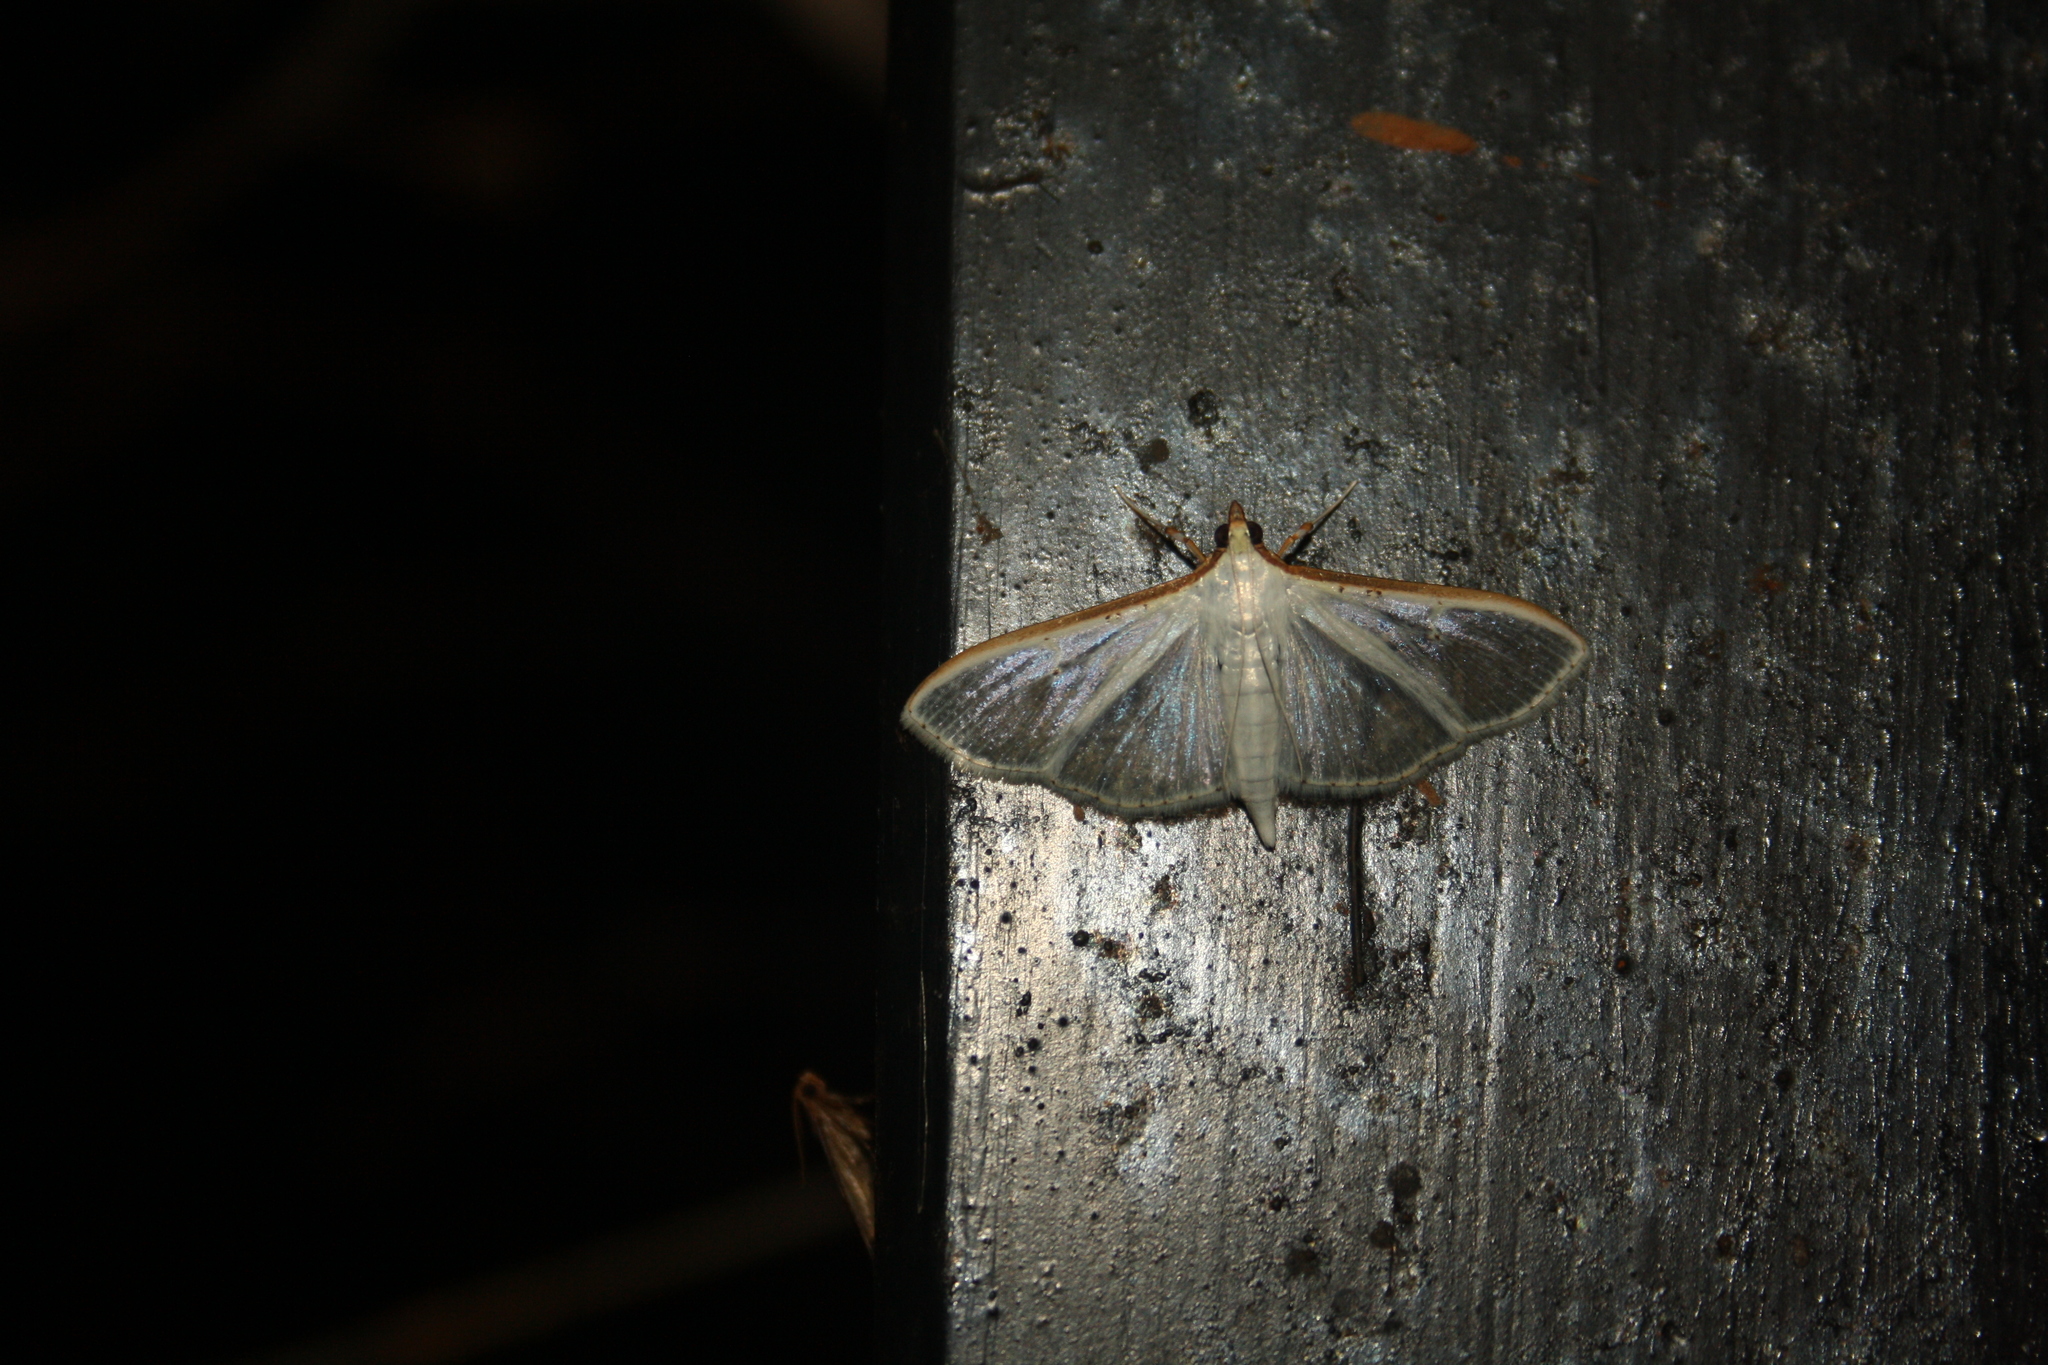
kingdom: Animalia
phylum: Arthropoda
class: Insecta
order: Lepidoptera
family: Crambidae
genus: Palpita
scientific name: Palpita vitrealis
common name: Olive-tree pearl
